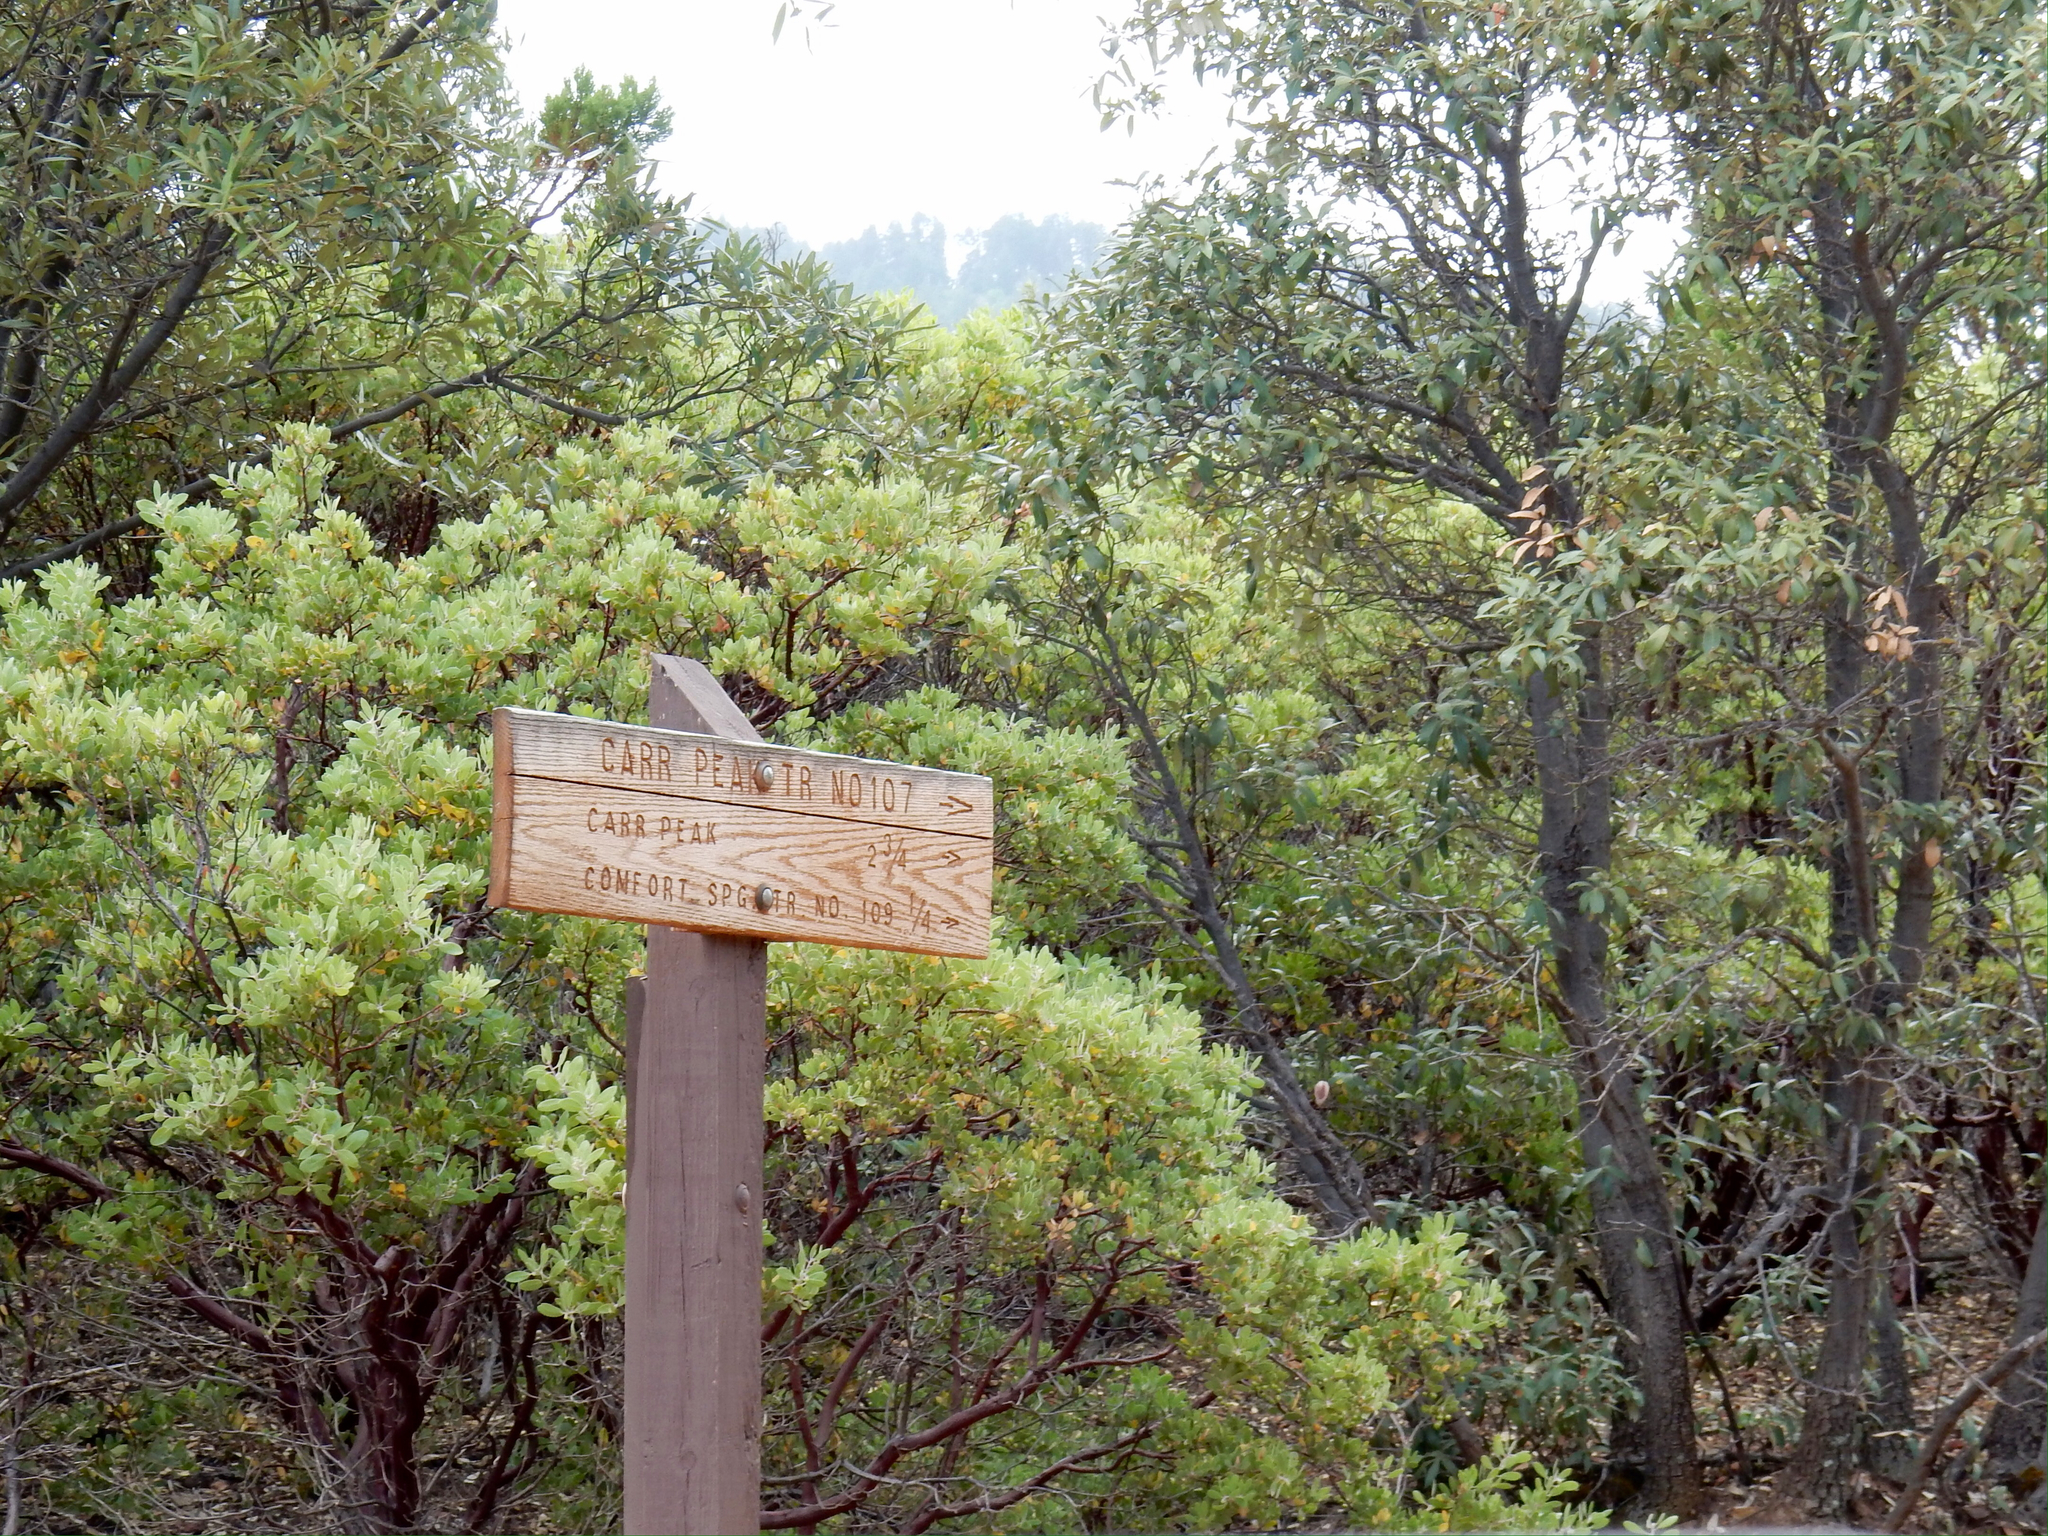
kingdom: Plantae
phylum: Tracheophyta
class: Magnoliopsida
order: Ericales
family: Ericaceae
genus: Arctostaphylos
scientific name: Arctostaphylos pungens
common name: Mexican manzanita
